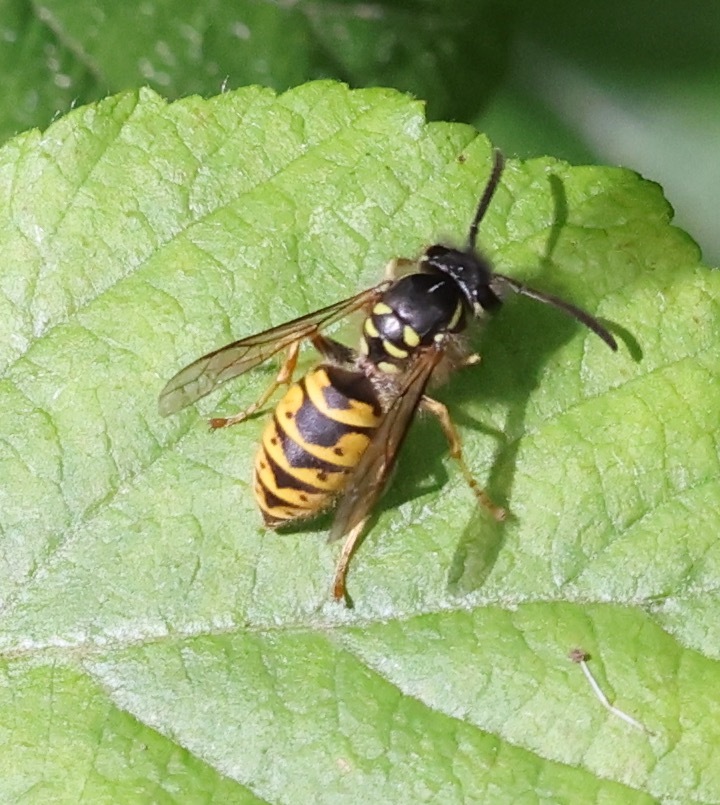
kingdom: Animalia
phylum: Arthropoda
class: Insecta
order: Hymenoptera
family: Vespidae
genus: Vespula
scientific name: Vespula vulgaris
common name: Common wasp
